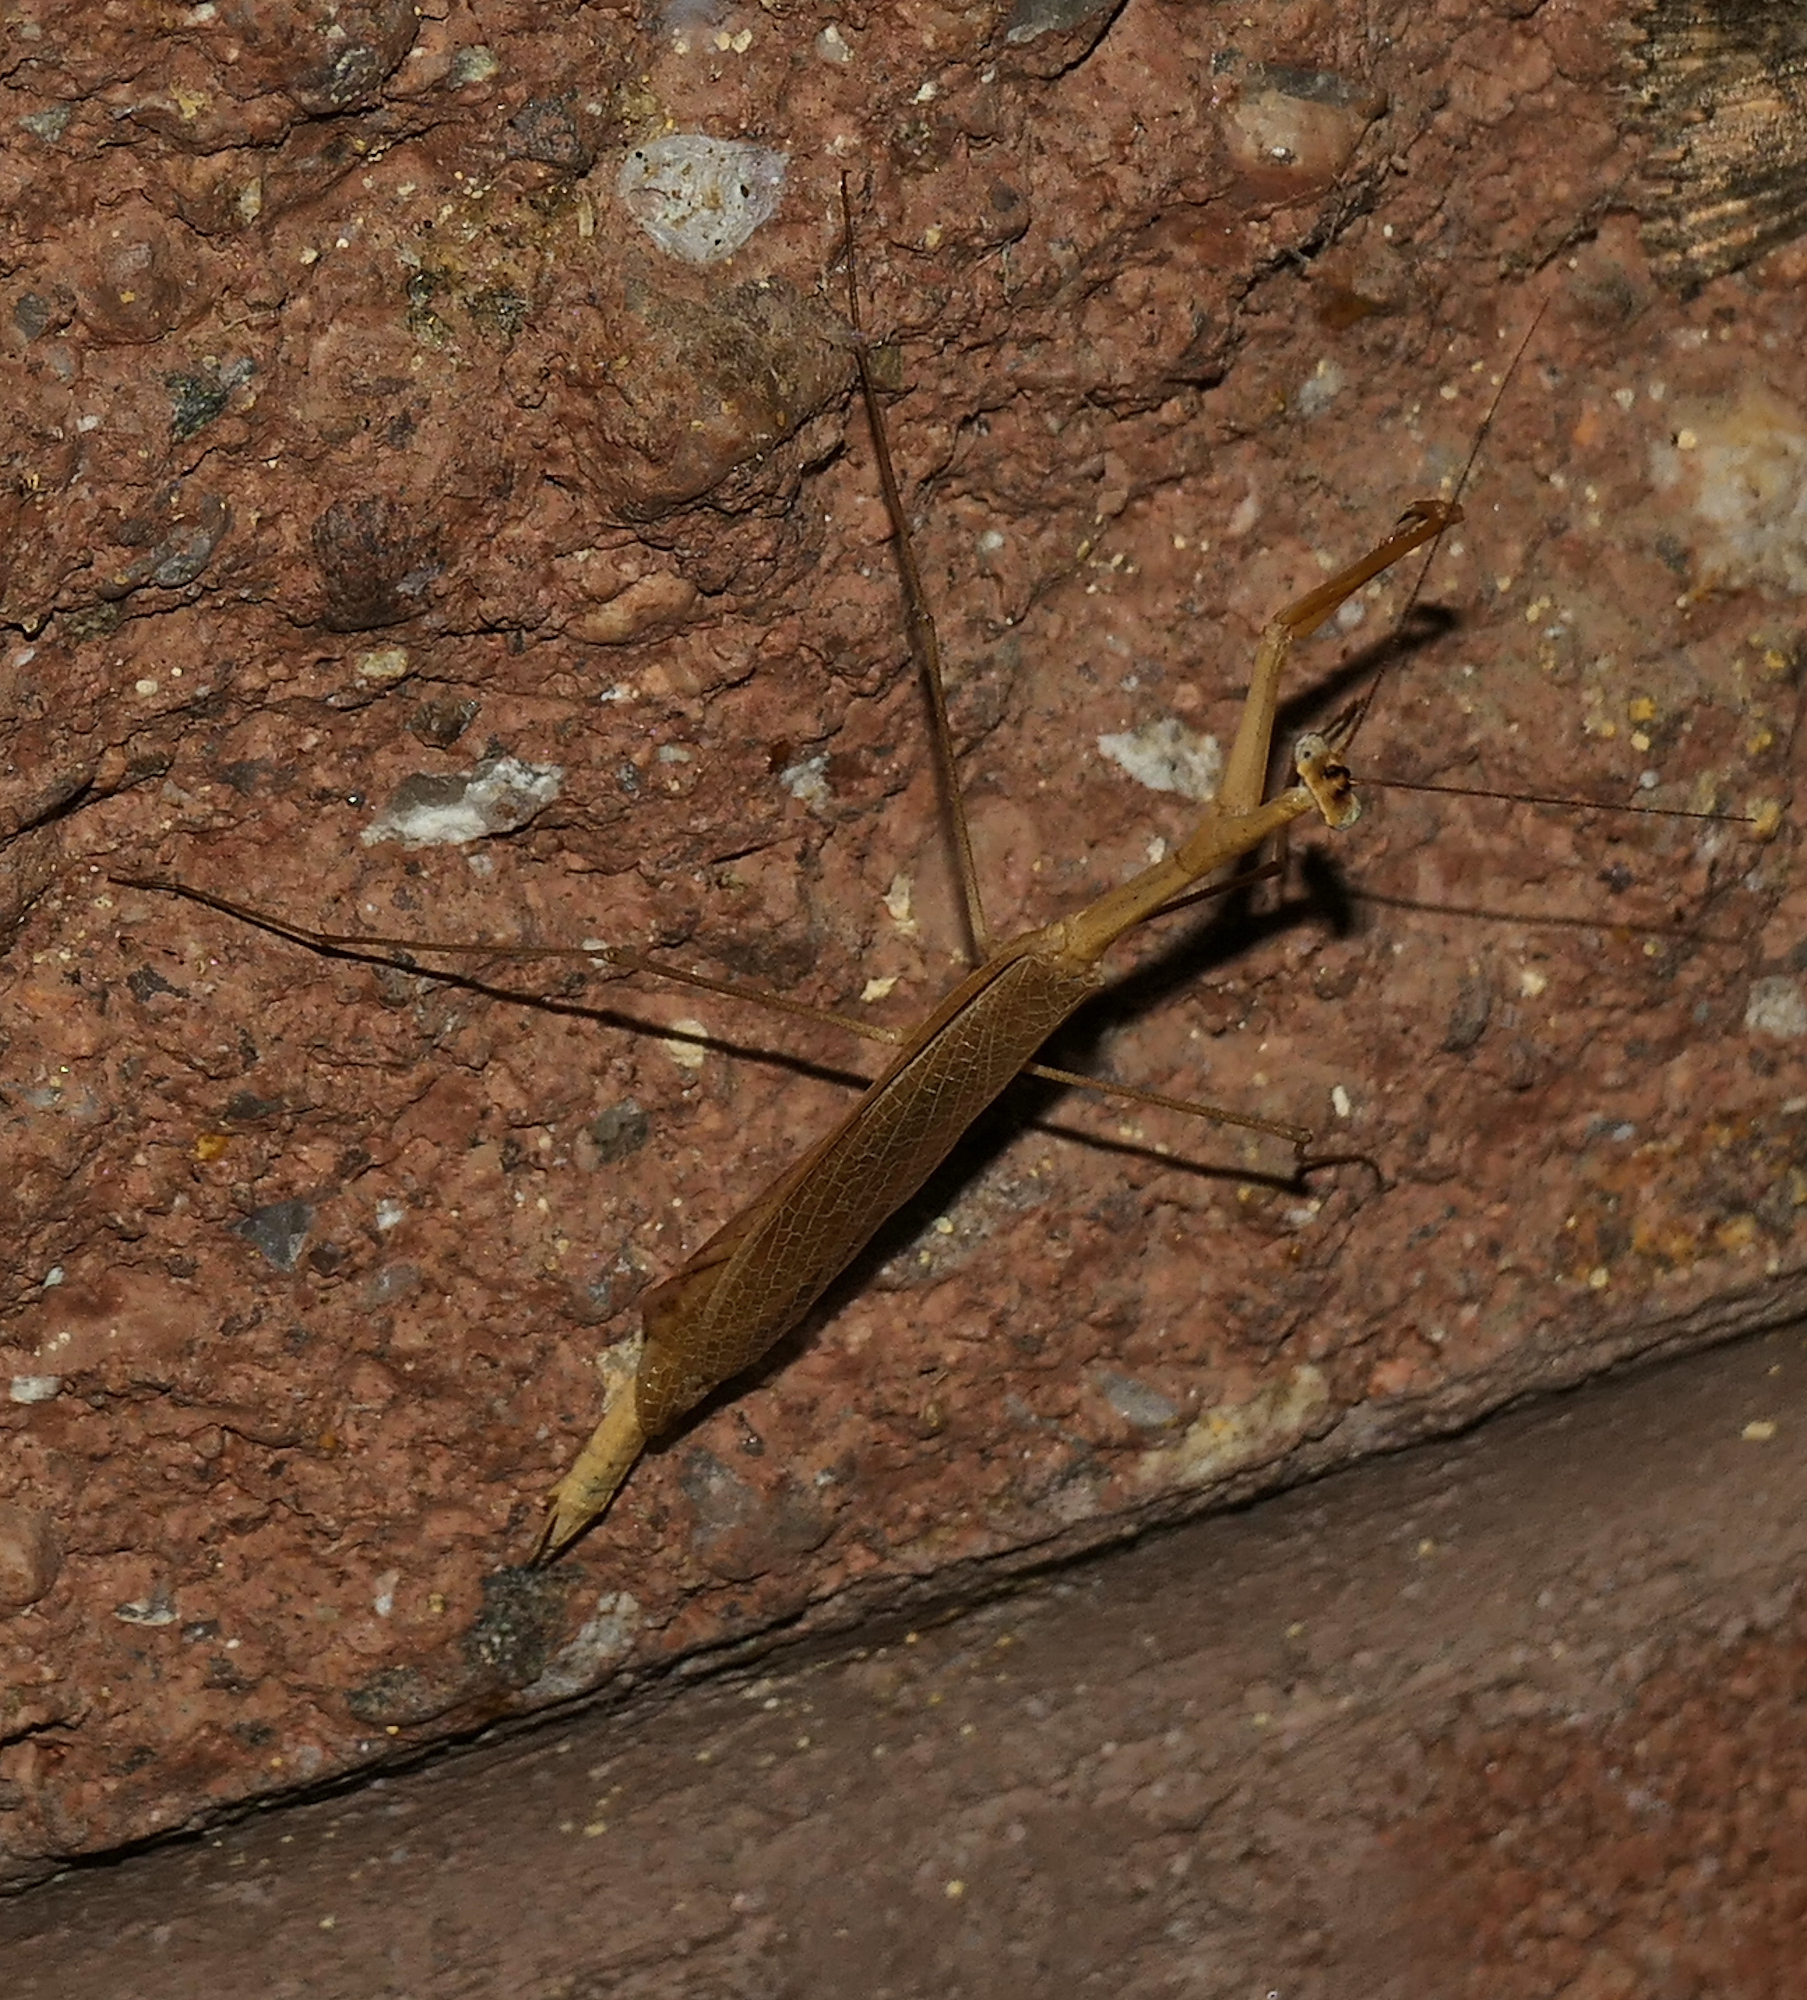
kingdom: Animalia
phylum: Arthropoda
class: Insecta
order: Mantodea
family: Thespidae
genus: Bistanta
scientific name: Bistanta herema
